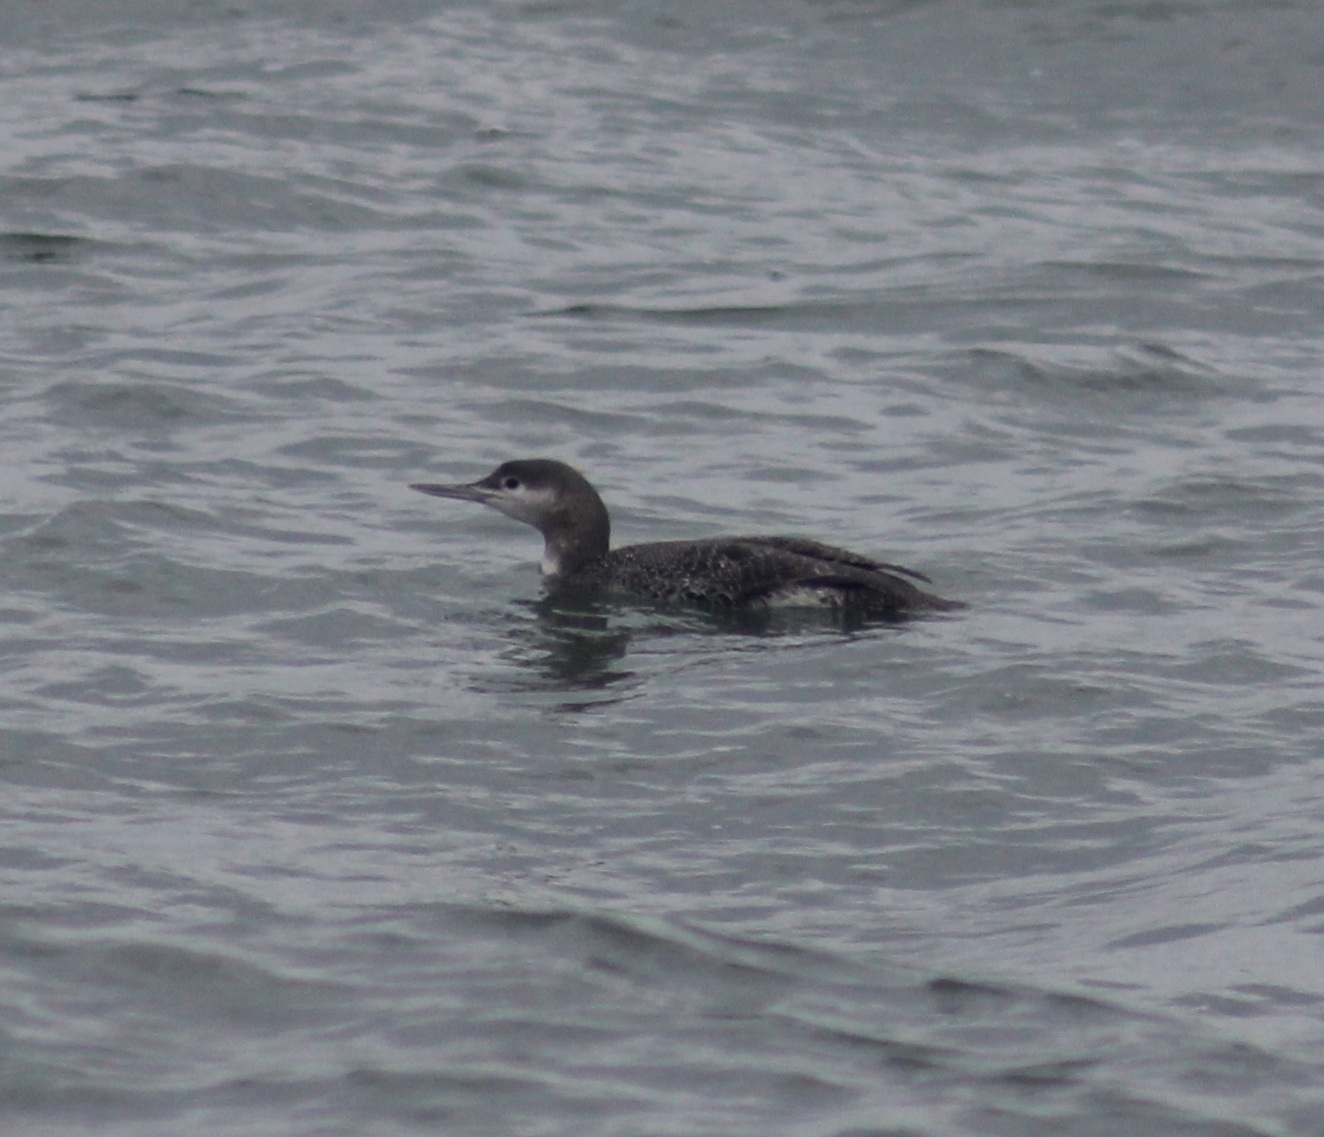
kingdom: Animalia
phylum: Chordata
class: Aves
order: Gaviiformes
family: Gaviidae
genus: Gavia
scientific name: Gavia stellata
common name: Red-throated loon
